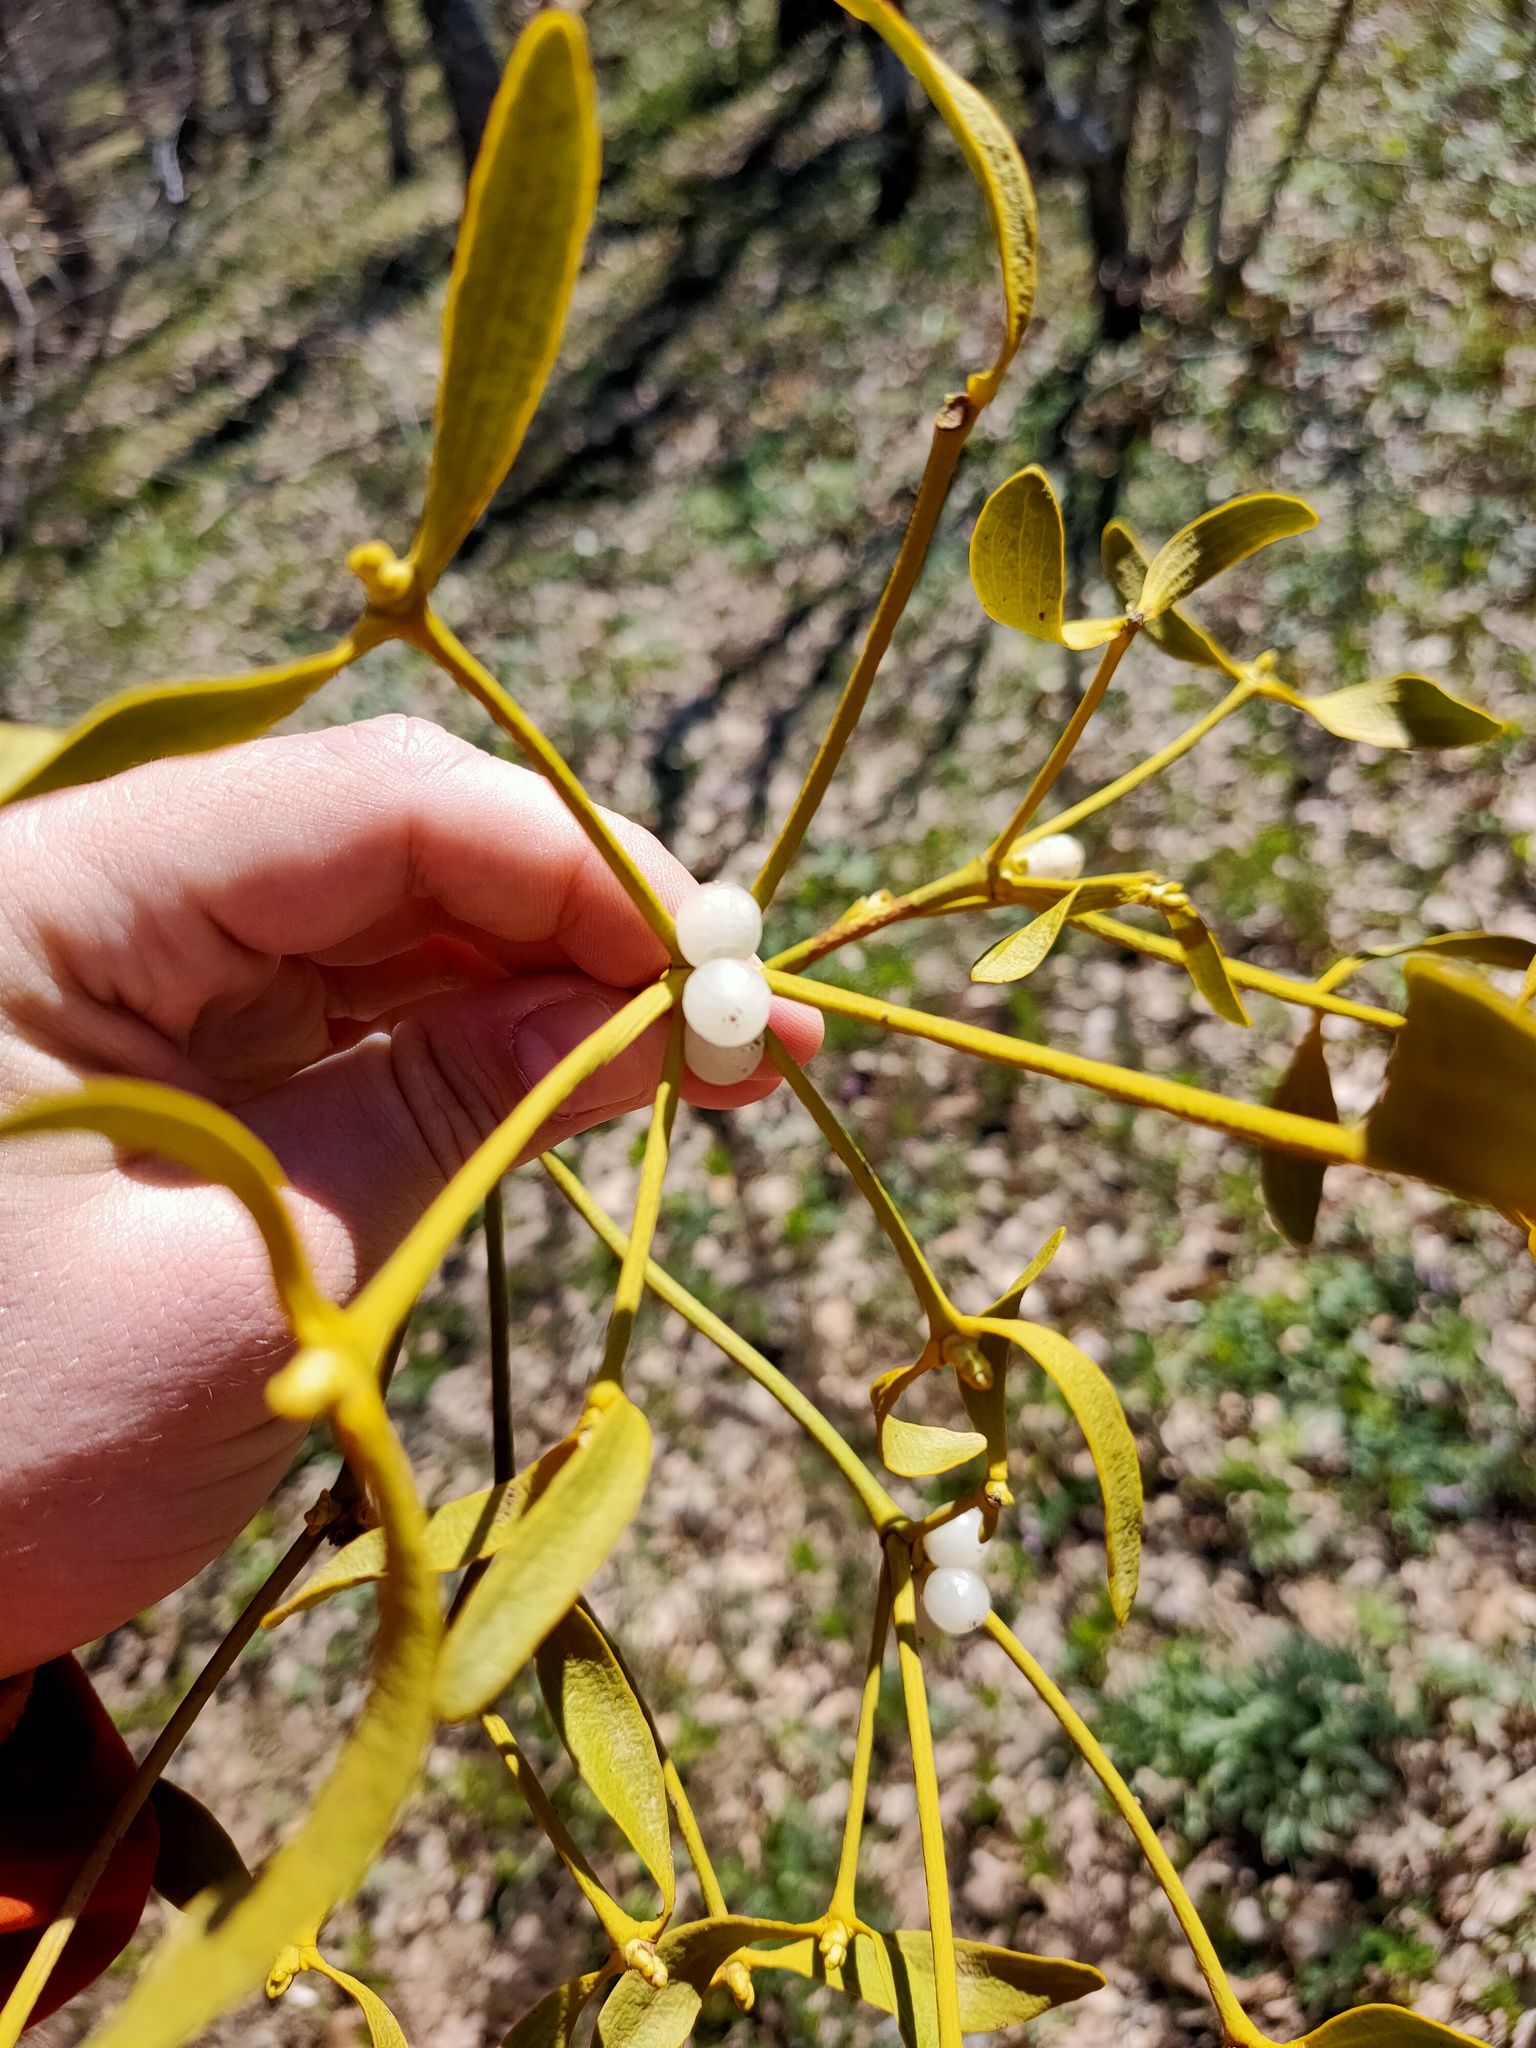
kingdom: Plantae
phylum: Tracheophyta
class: Magnoliopsida
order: Santalales
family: Viscaceae
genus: Viscum
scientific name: Viscum album
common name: Mistletoe
